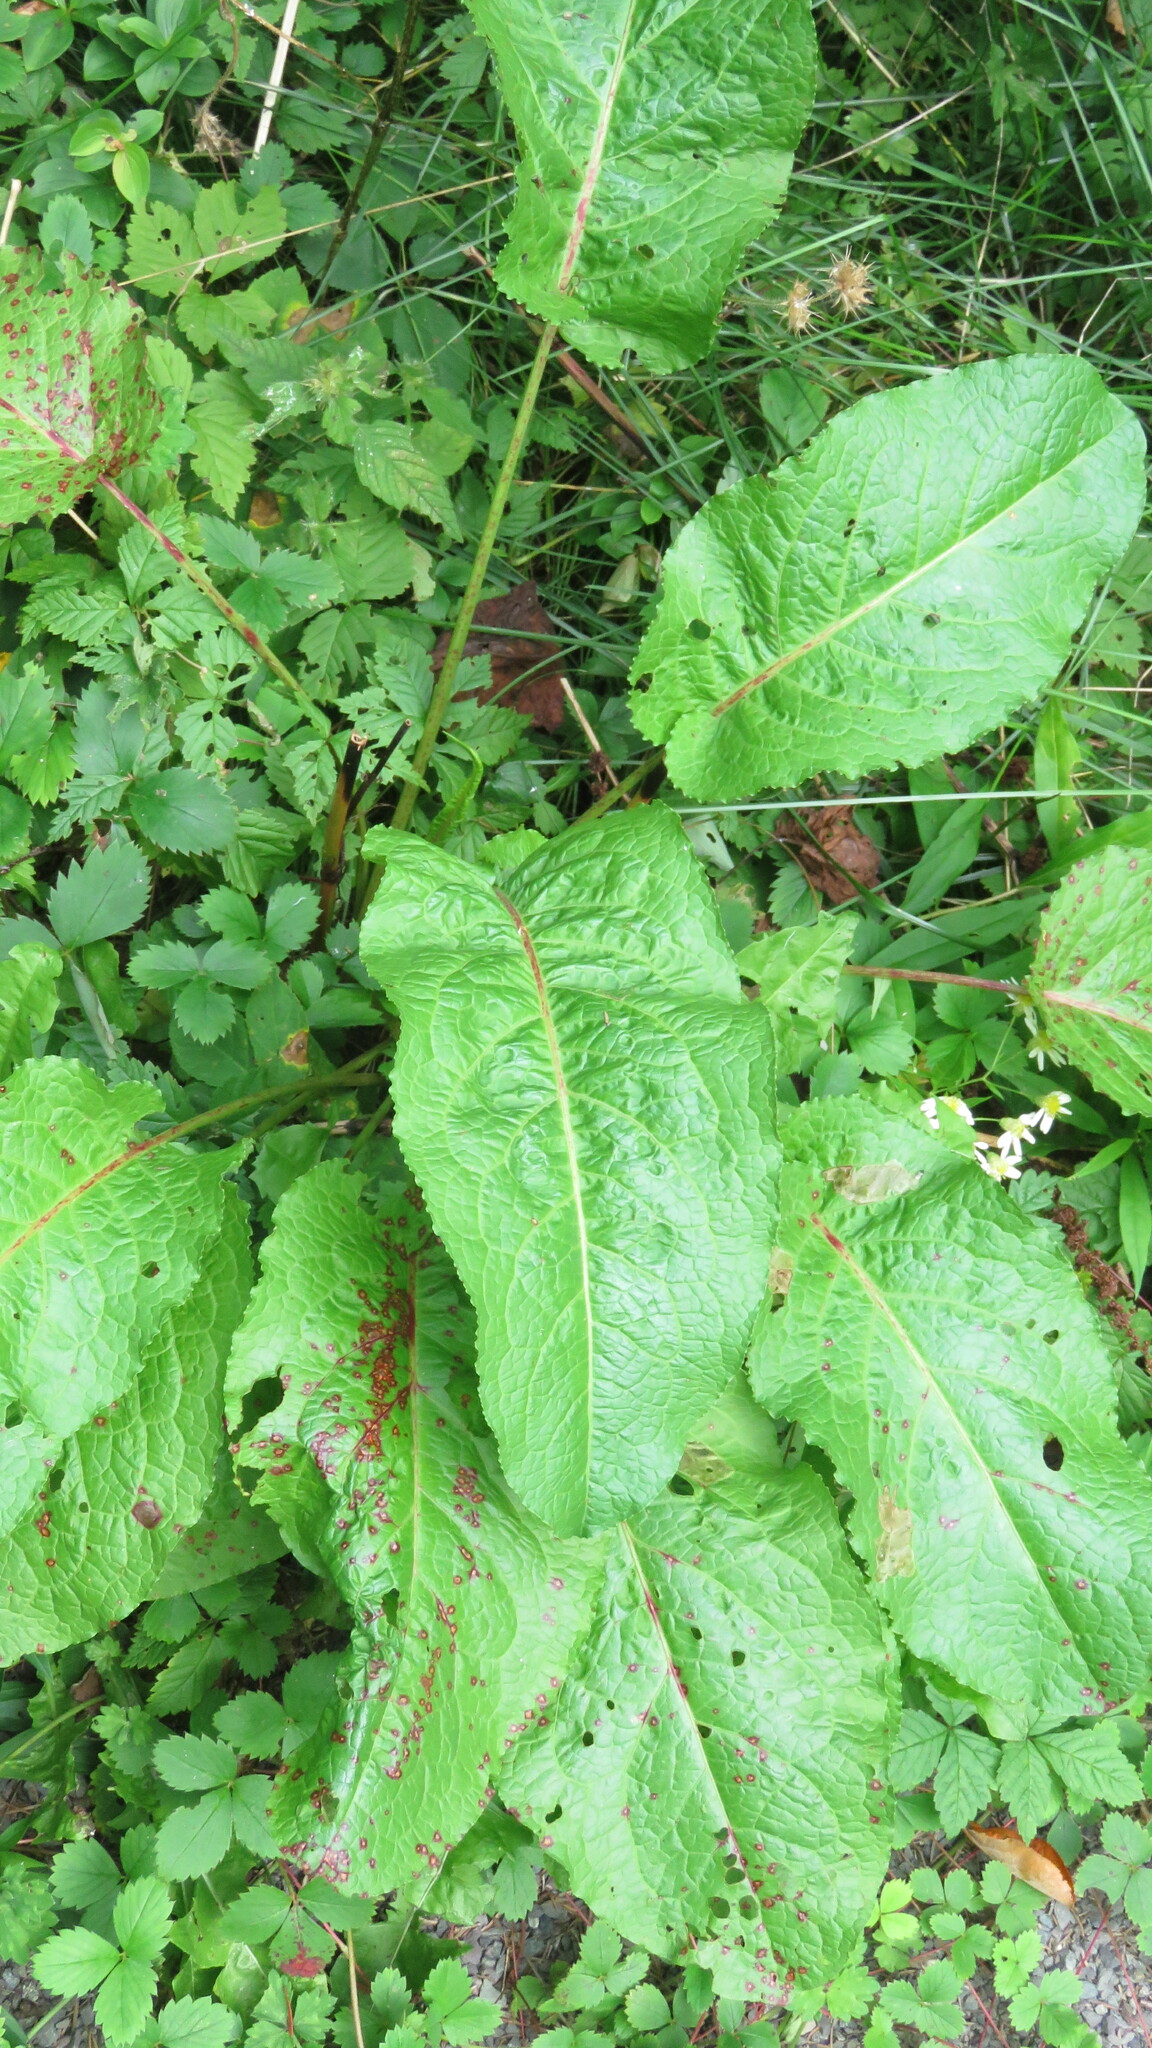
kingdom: Plantae
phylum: Tracheophyta
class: Magnoliopsida
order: Caryophyllales
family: Polygonaceae
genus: Rumex
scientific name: Rumex obtusifolius
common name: Bitter dock
